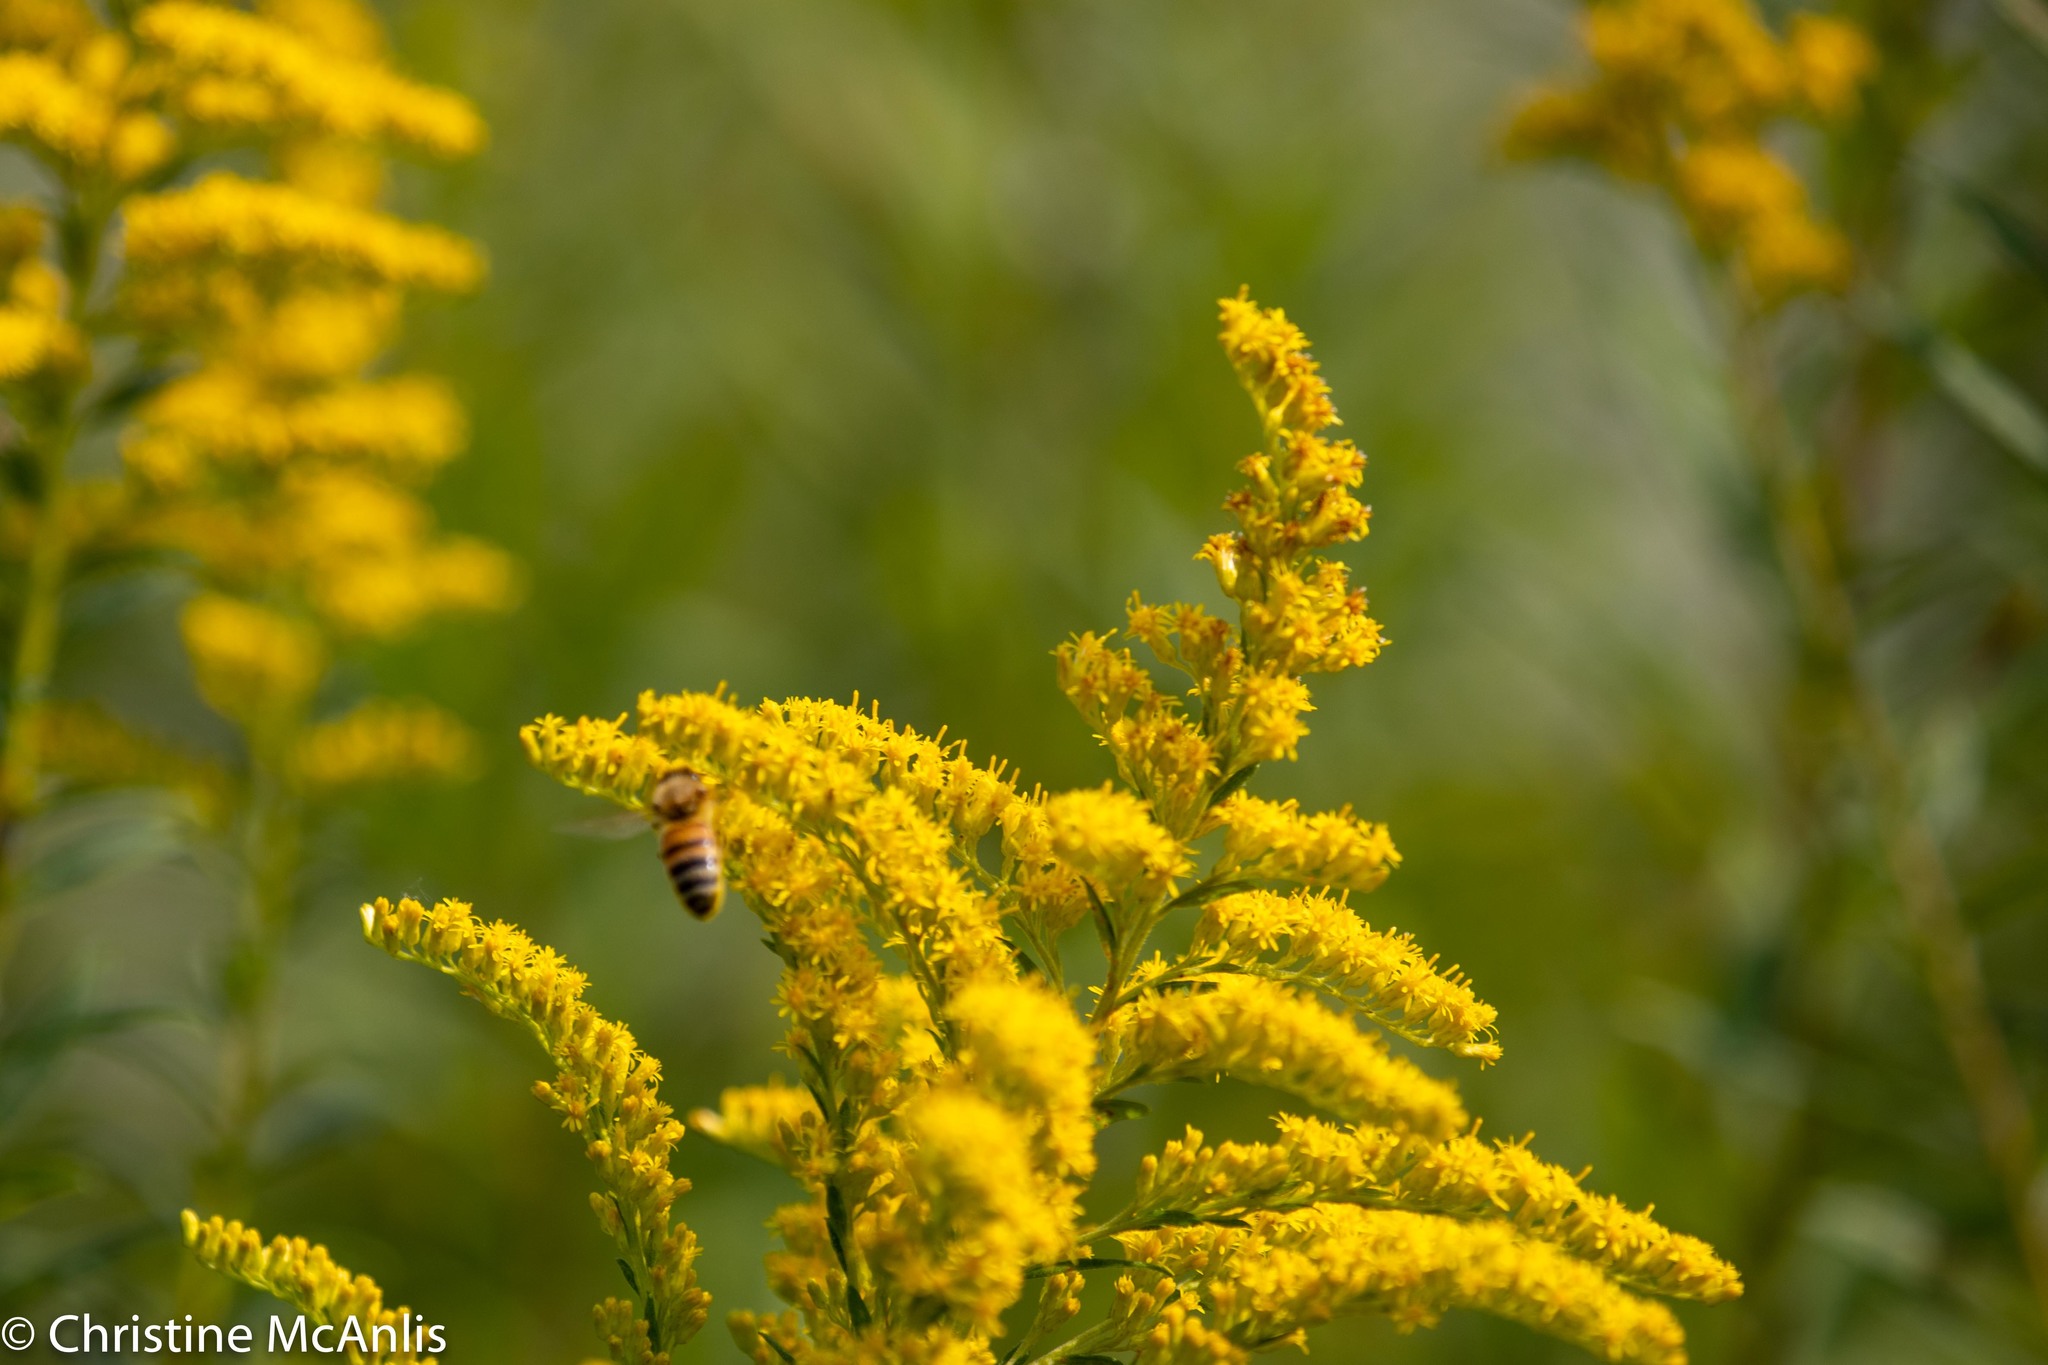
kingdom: Animalia
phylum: Arthropoda
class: Insecta
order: Hymenoptera
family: Apidae
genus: Apis
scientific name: Apis mellifera
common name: Honey bee
